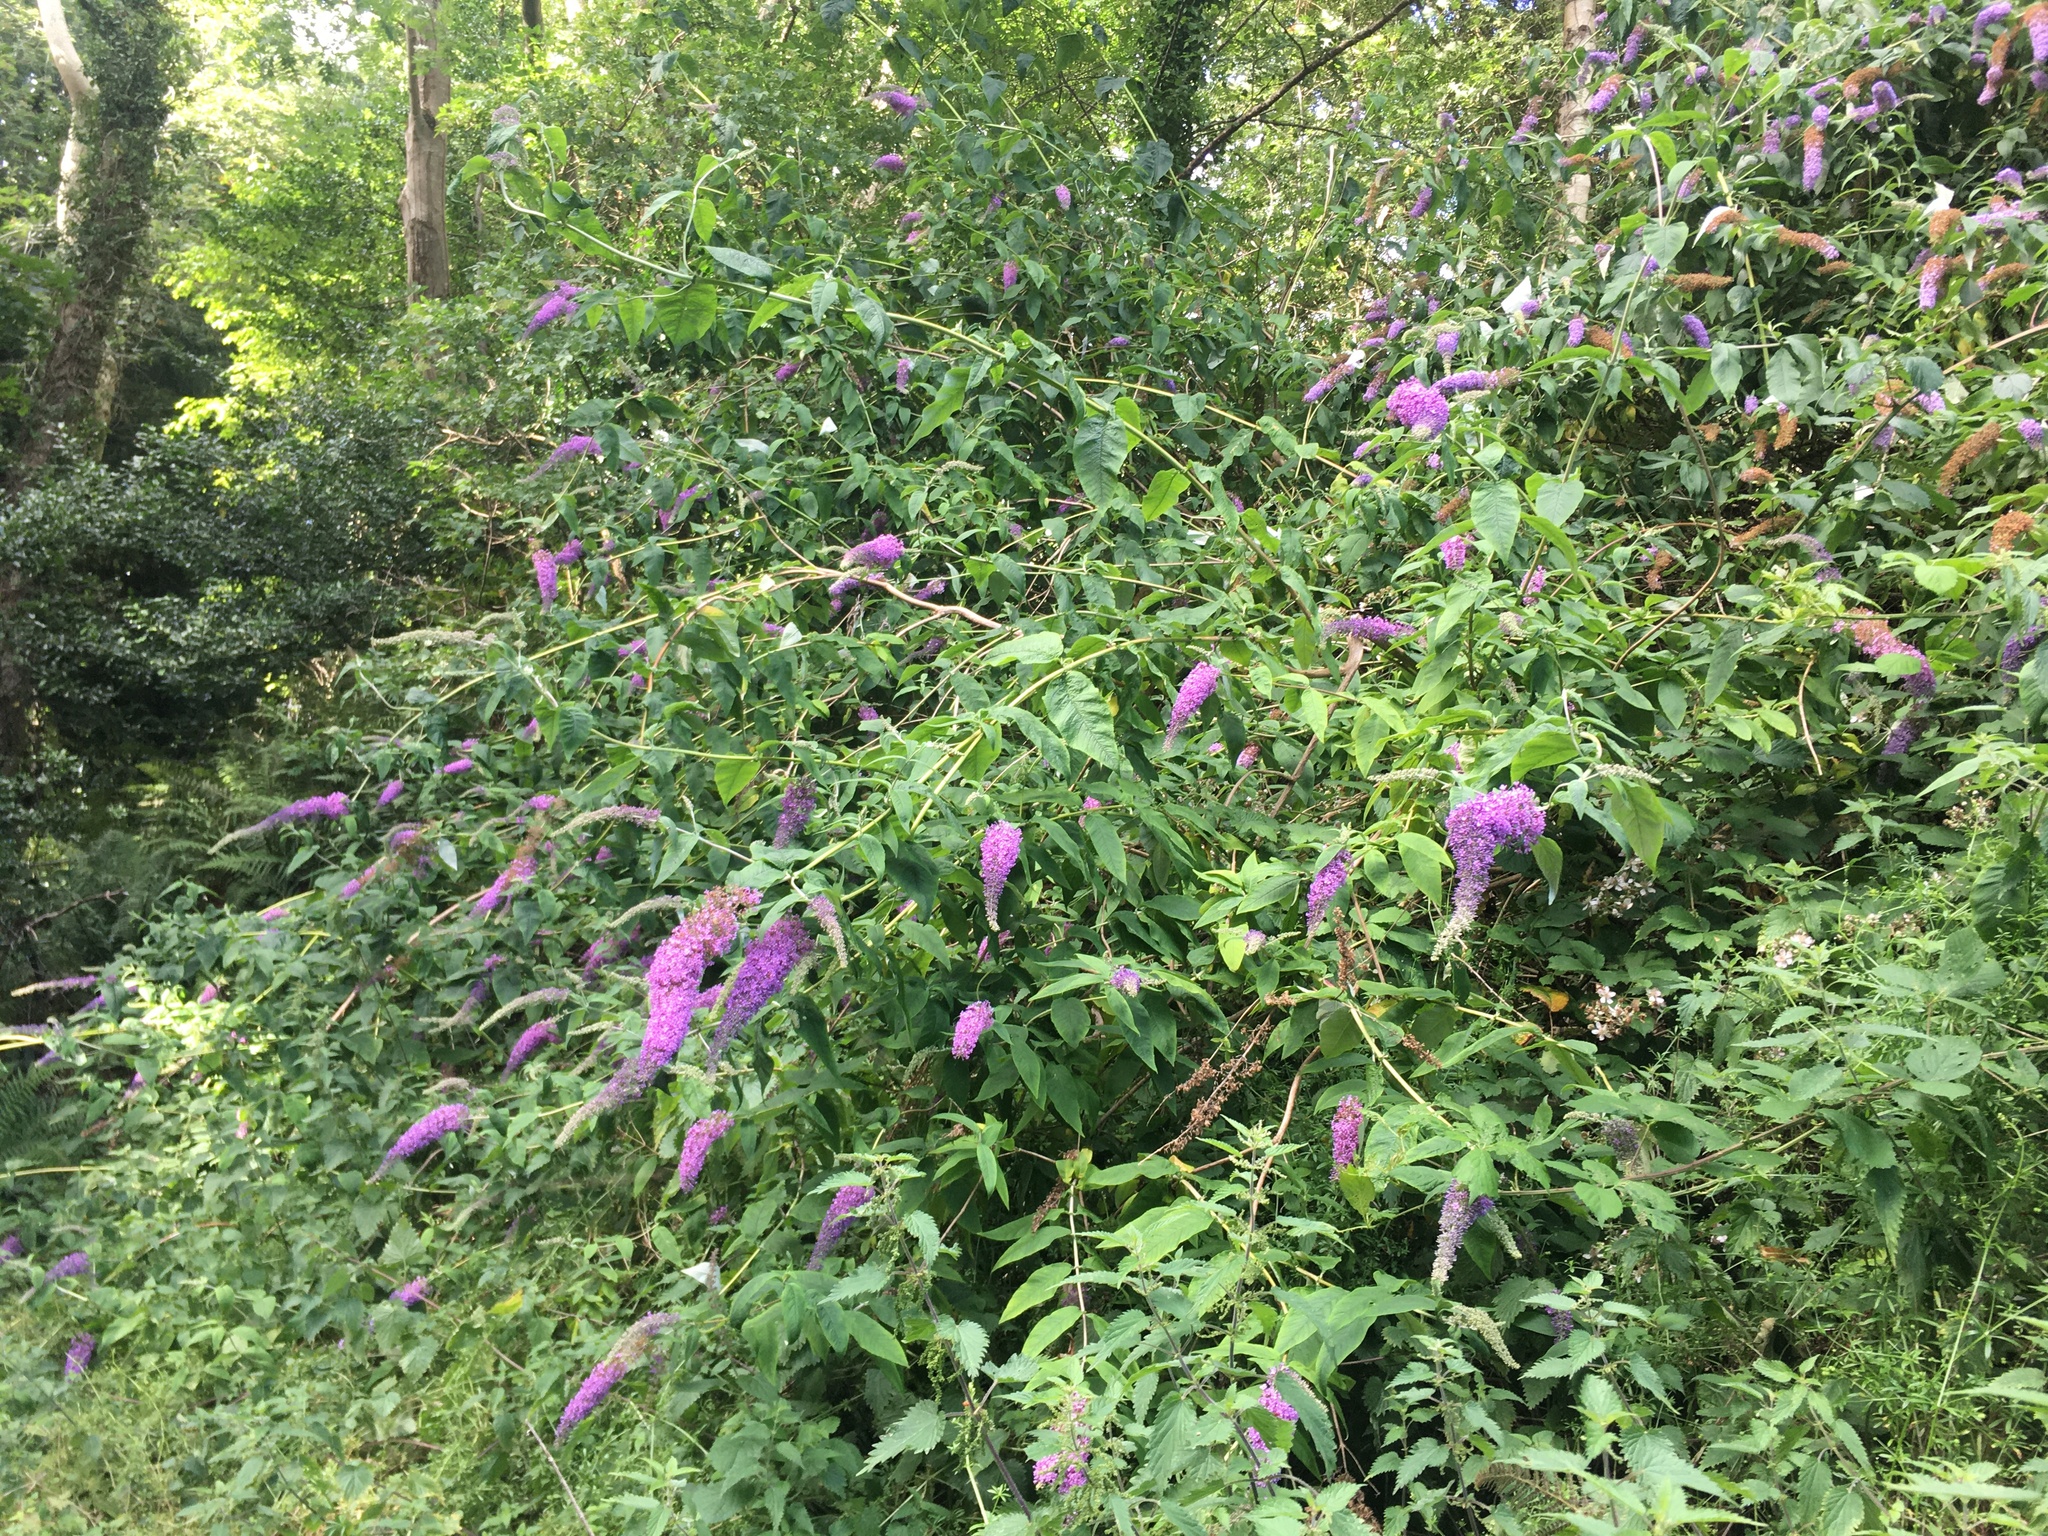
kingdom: Plantae
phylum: Tracheophyta
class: Magnoliopsida
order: Lamiales
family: Scrophulariaceae
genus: Buddleja
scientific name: Buddleja davidii
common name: Butterfly-bush
